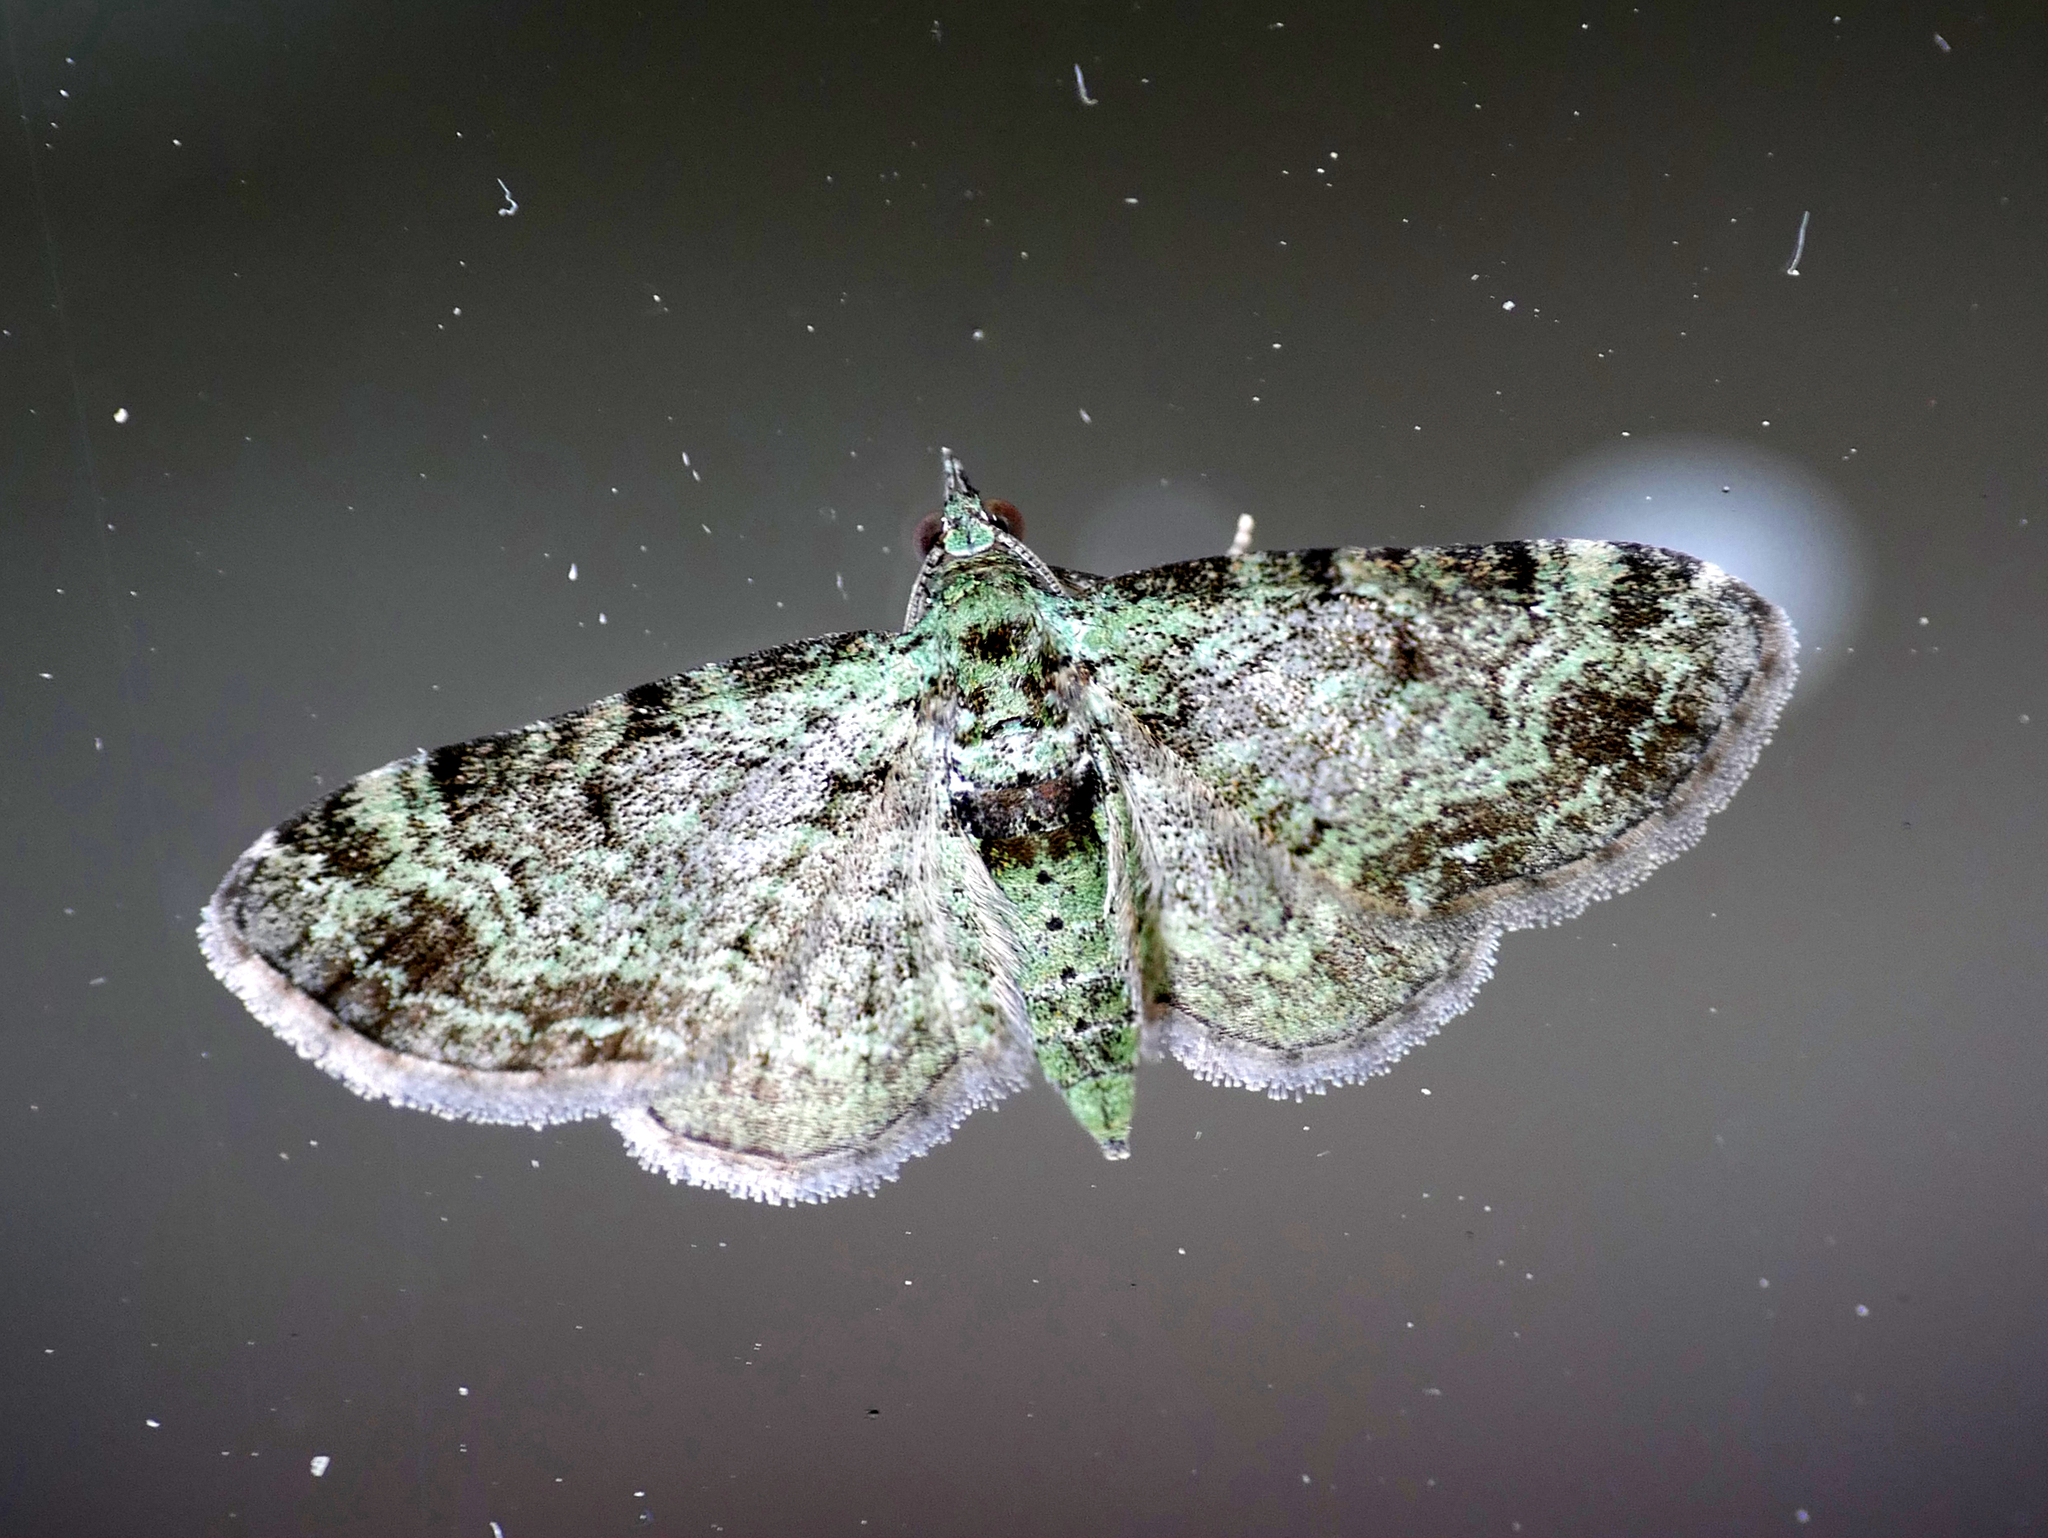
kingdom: Animalia
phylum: Arthropoda
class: Insecta
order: Lepidoptera
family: Geometridae
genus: Pasiphila
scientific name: Pasiphila rectangulata
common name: Green pug
